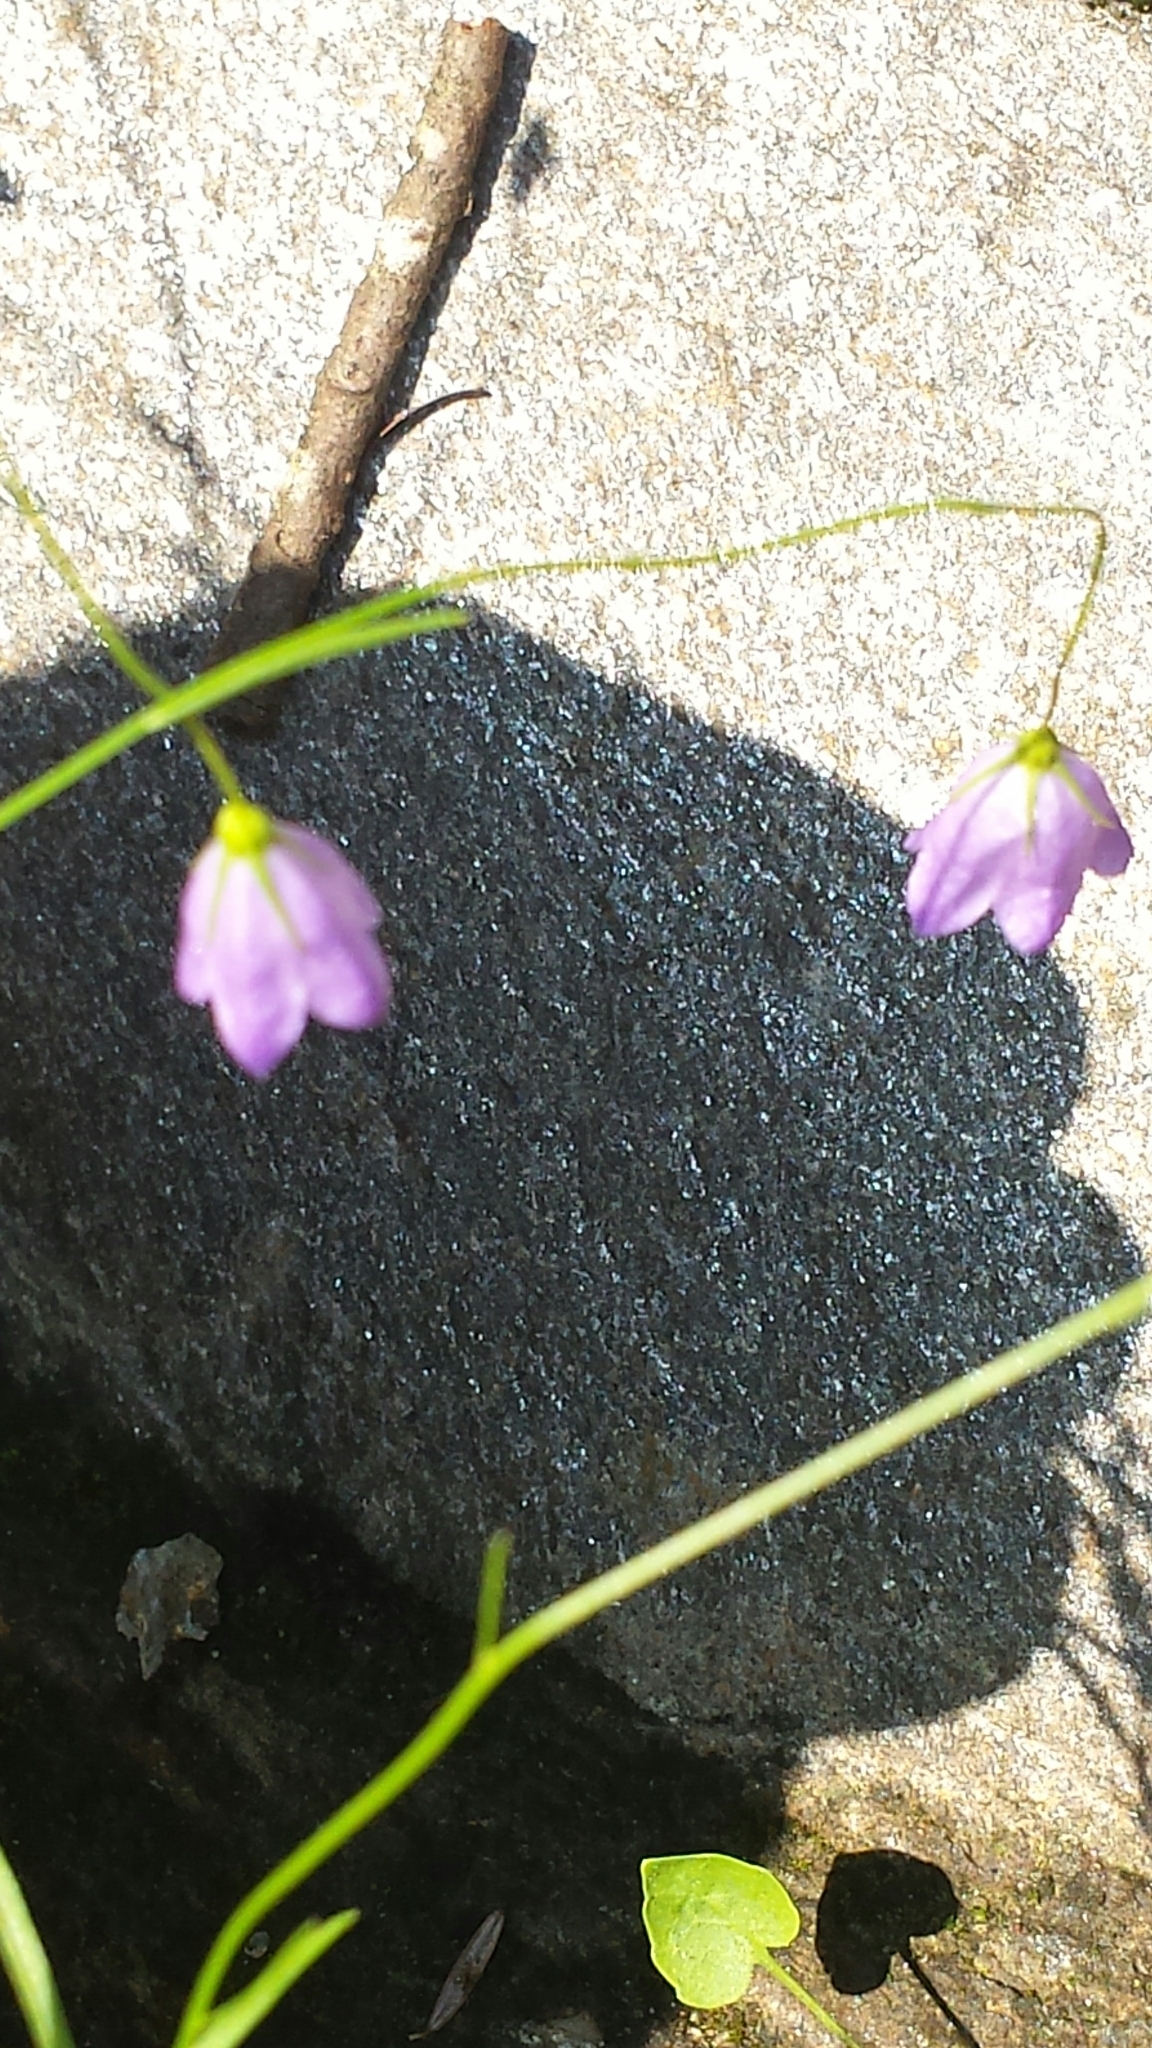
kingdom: Plantae
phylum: Tracheophyta
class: Magnoliopsida
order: Asterales
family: Campanulaceae
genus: Campanula
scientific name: Campanula intercedens
